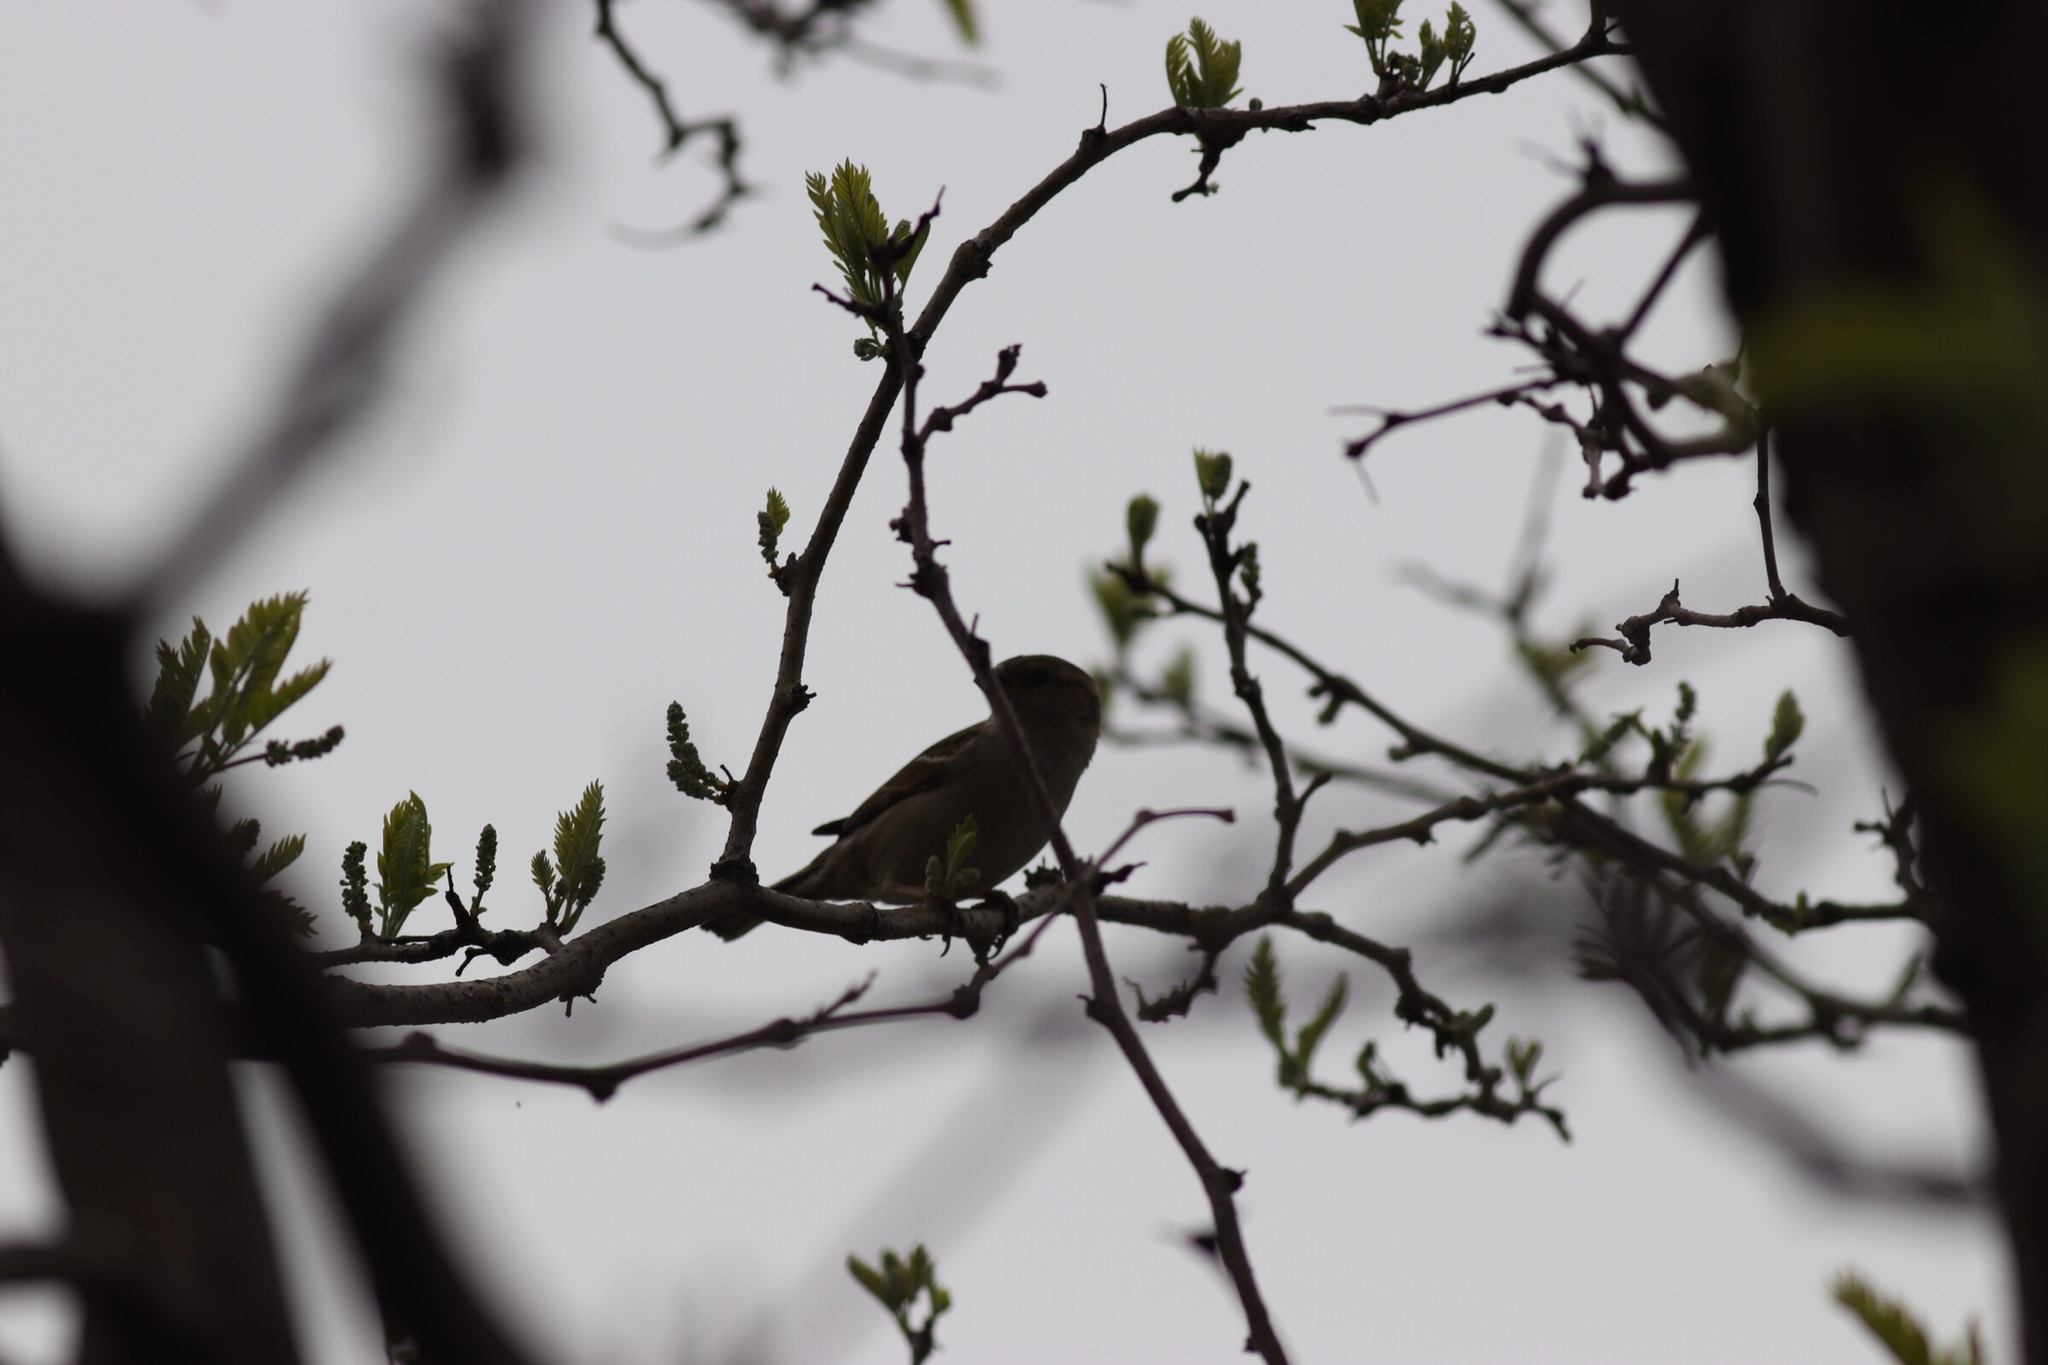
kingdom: Animalia
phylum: Chordata
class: Aves
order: Passeriformes
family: Passeridae
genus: Passer
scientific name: Passer domesticus
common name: House sparrow
